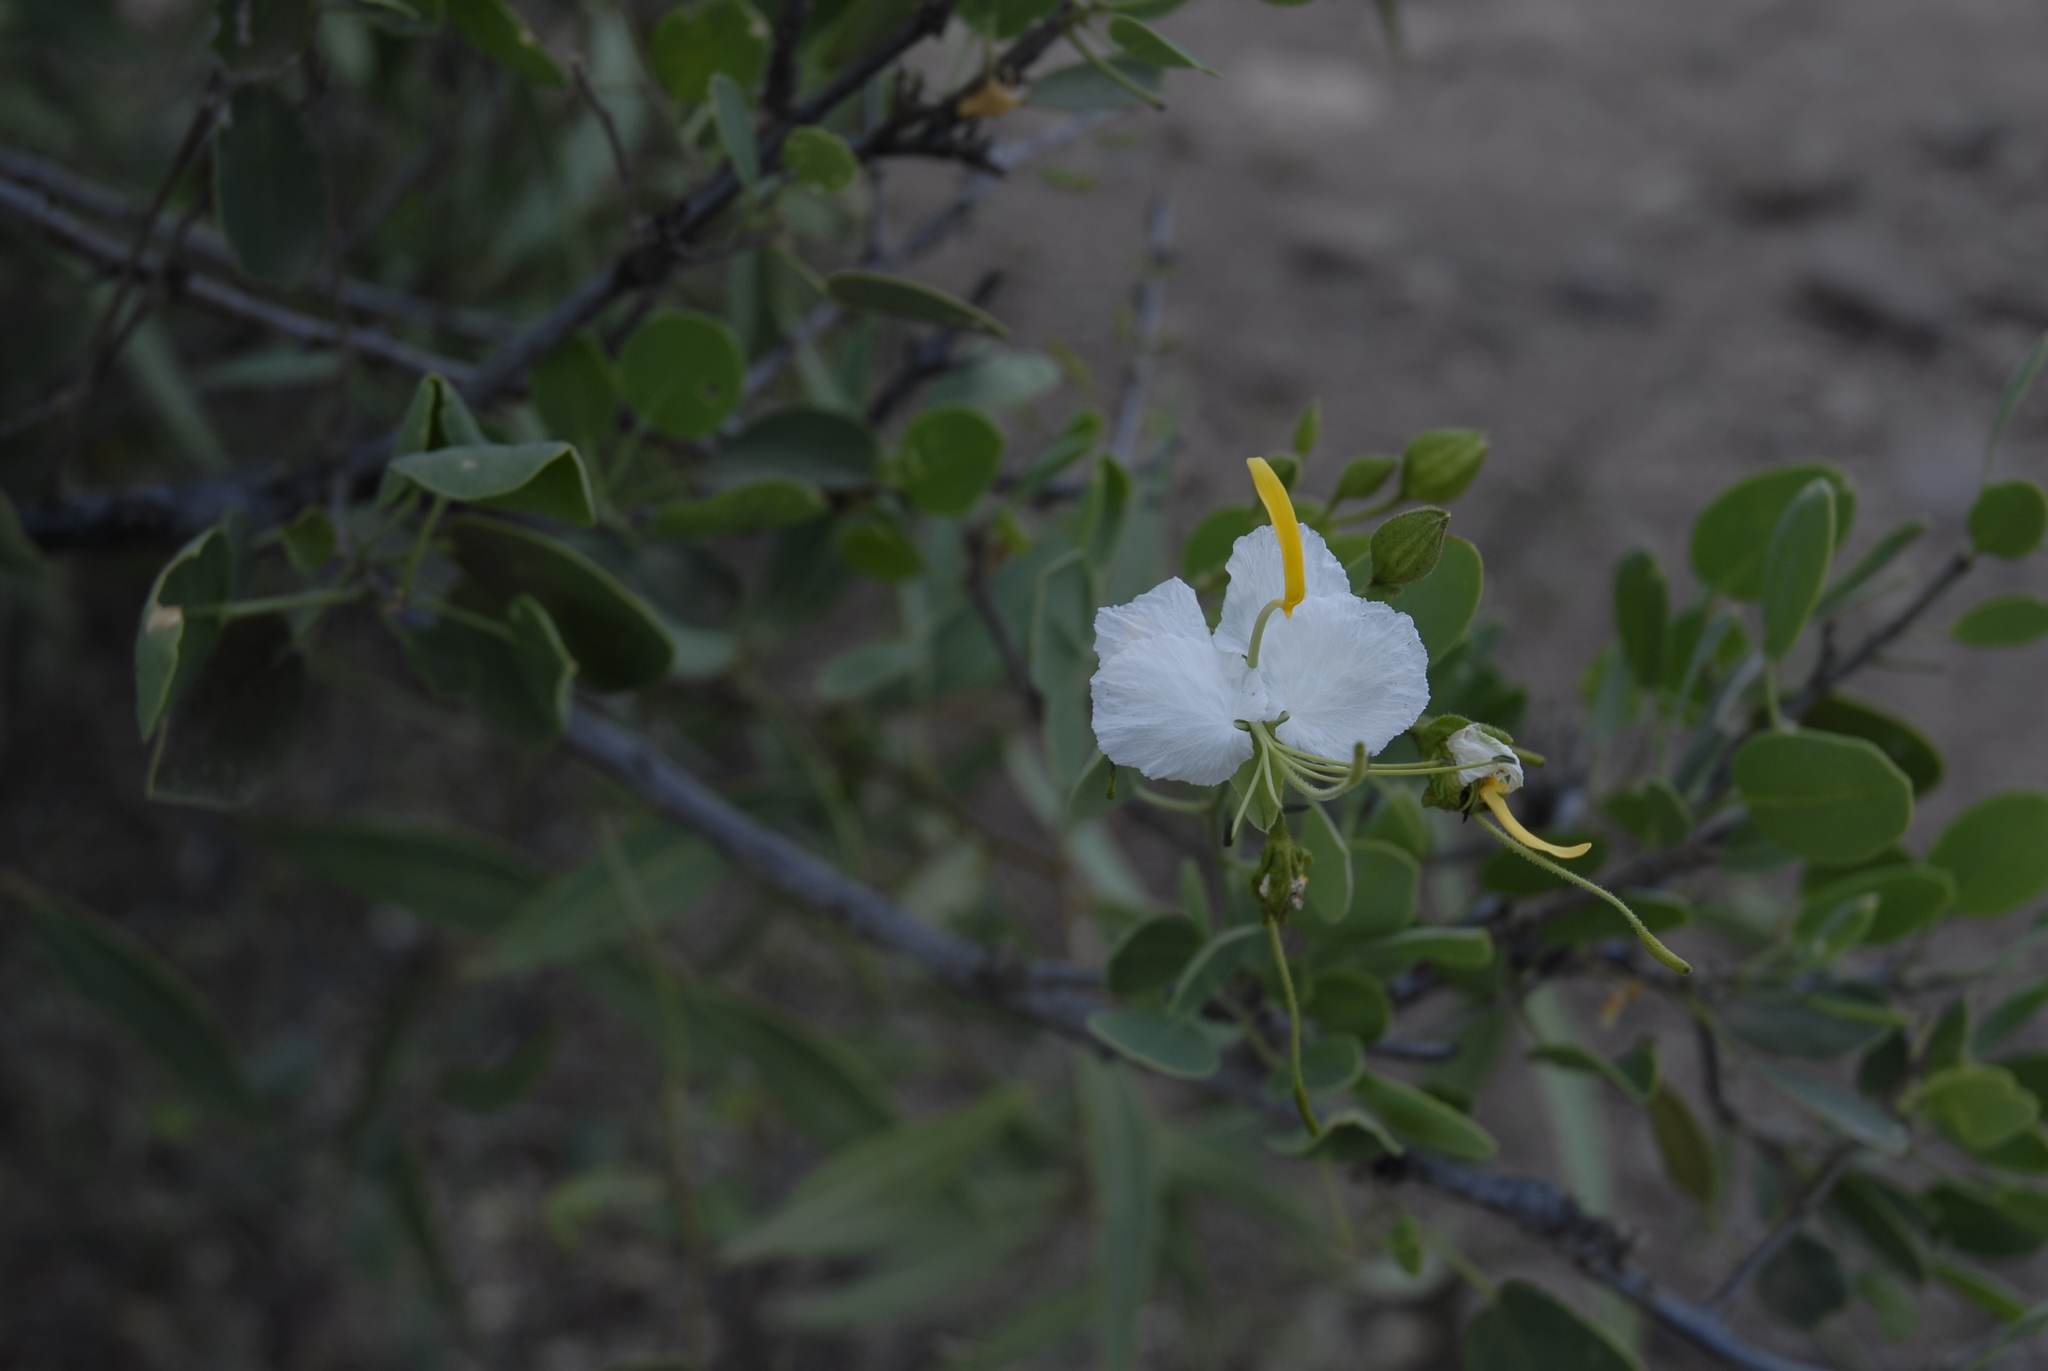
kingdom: Plantae
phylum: Tracheophyta
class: Magnoliopsida
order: Brassicales
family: Capparaceae
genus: Cadaba
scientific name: Cadaba mirabilis
